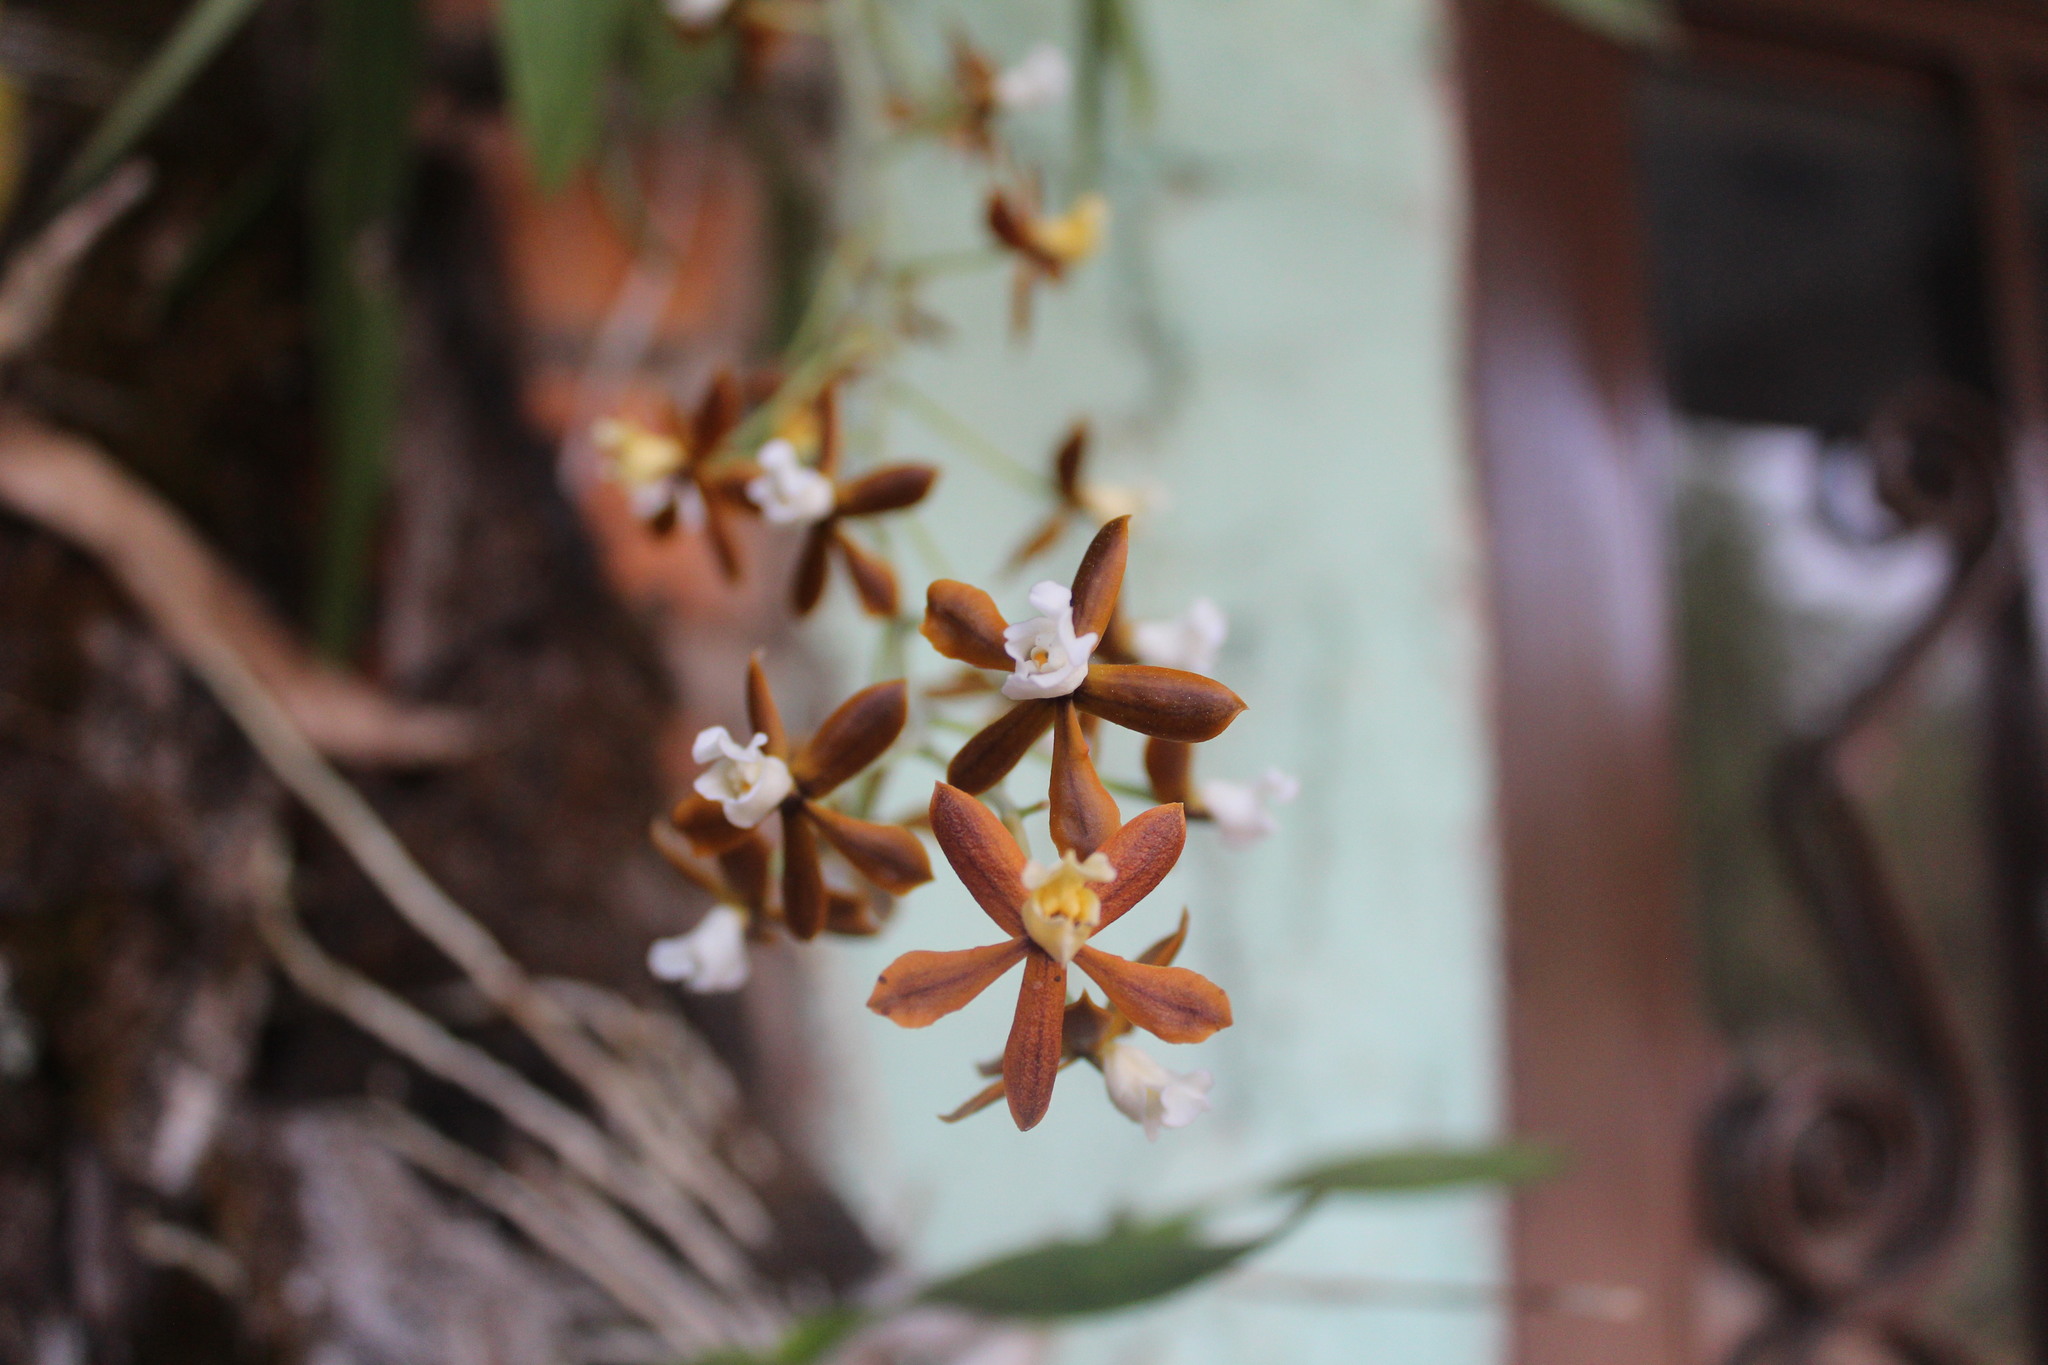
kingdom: Plantae
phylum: Tracheophyta
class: Liliopsida
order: Asparagales
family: Orchidaceae
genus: Prosthechea
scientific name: Prosthechea bicamerata
